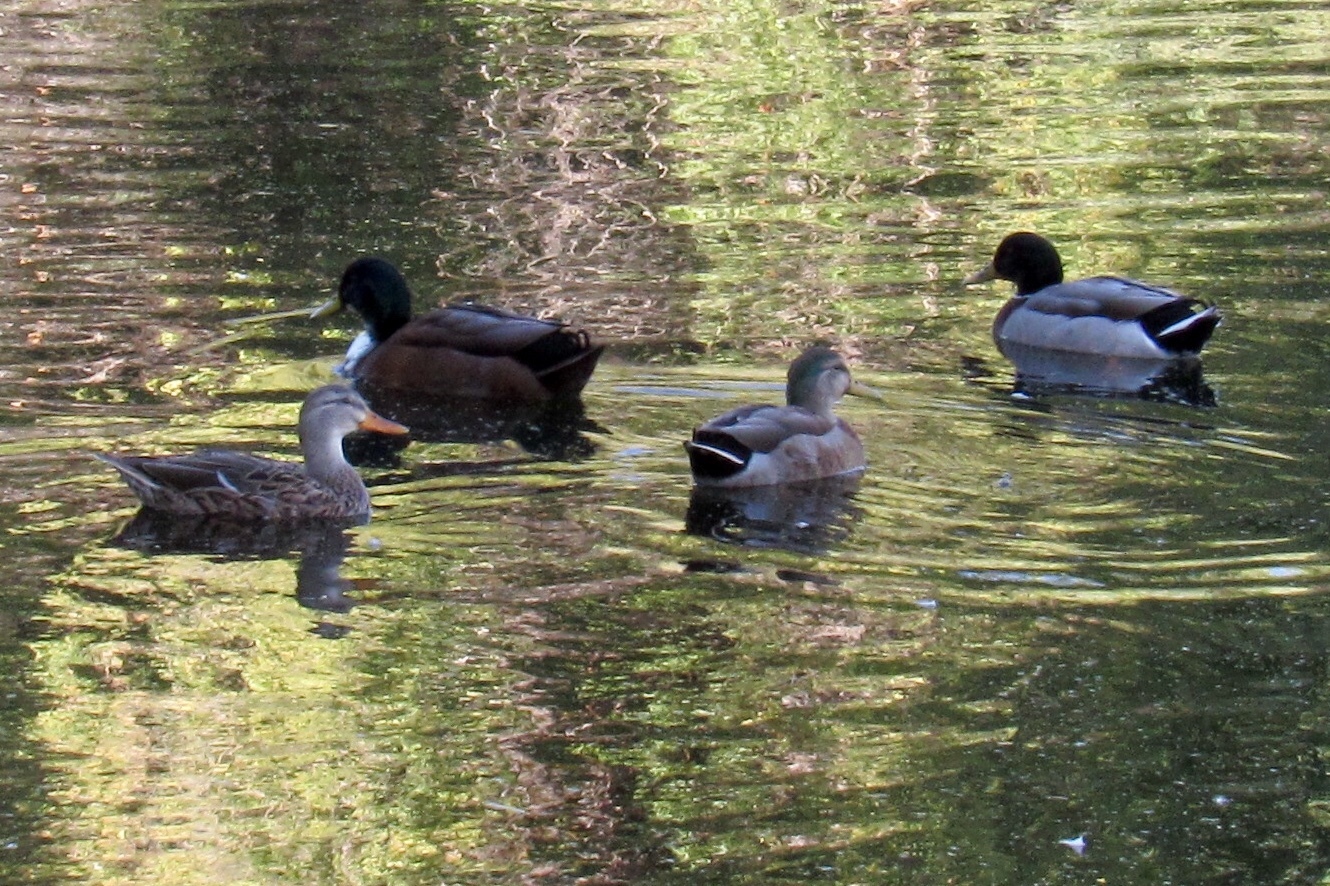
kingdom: Animalia
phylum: Chordata
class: Aves
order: Anseriformes
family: Anatidae
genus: Anas
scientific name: Anas platyrhynchos
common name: Mallard
